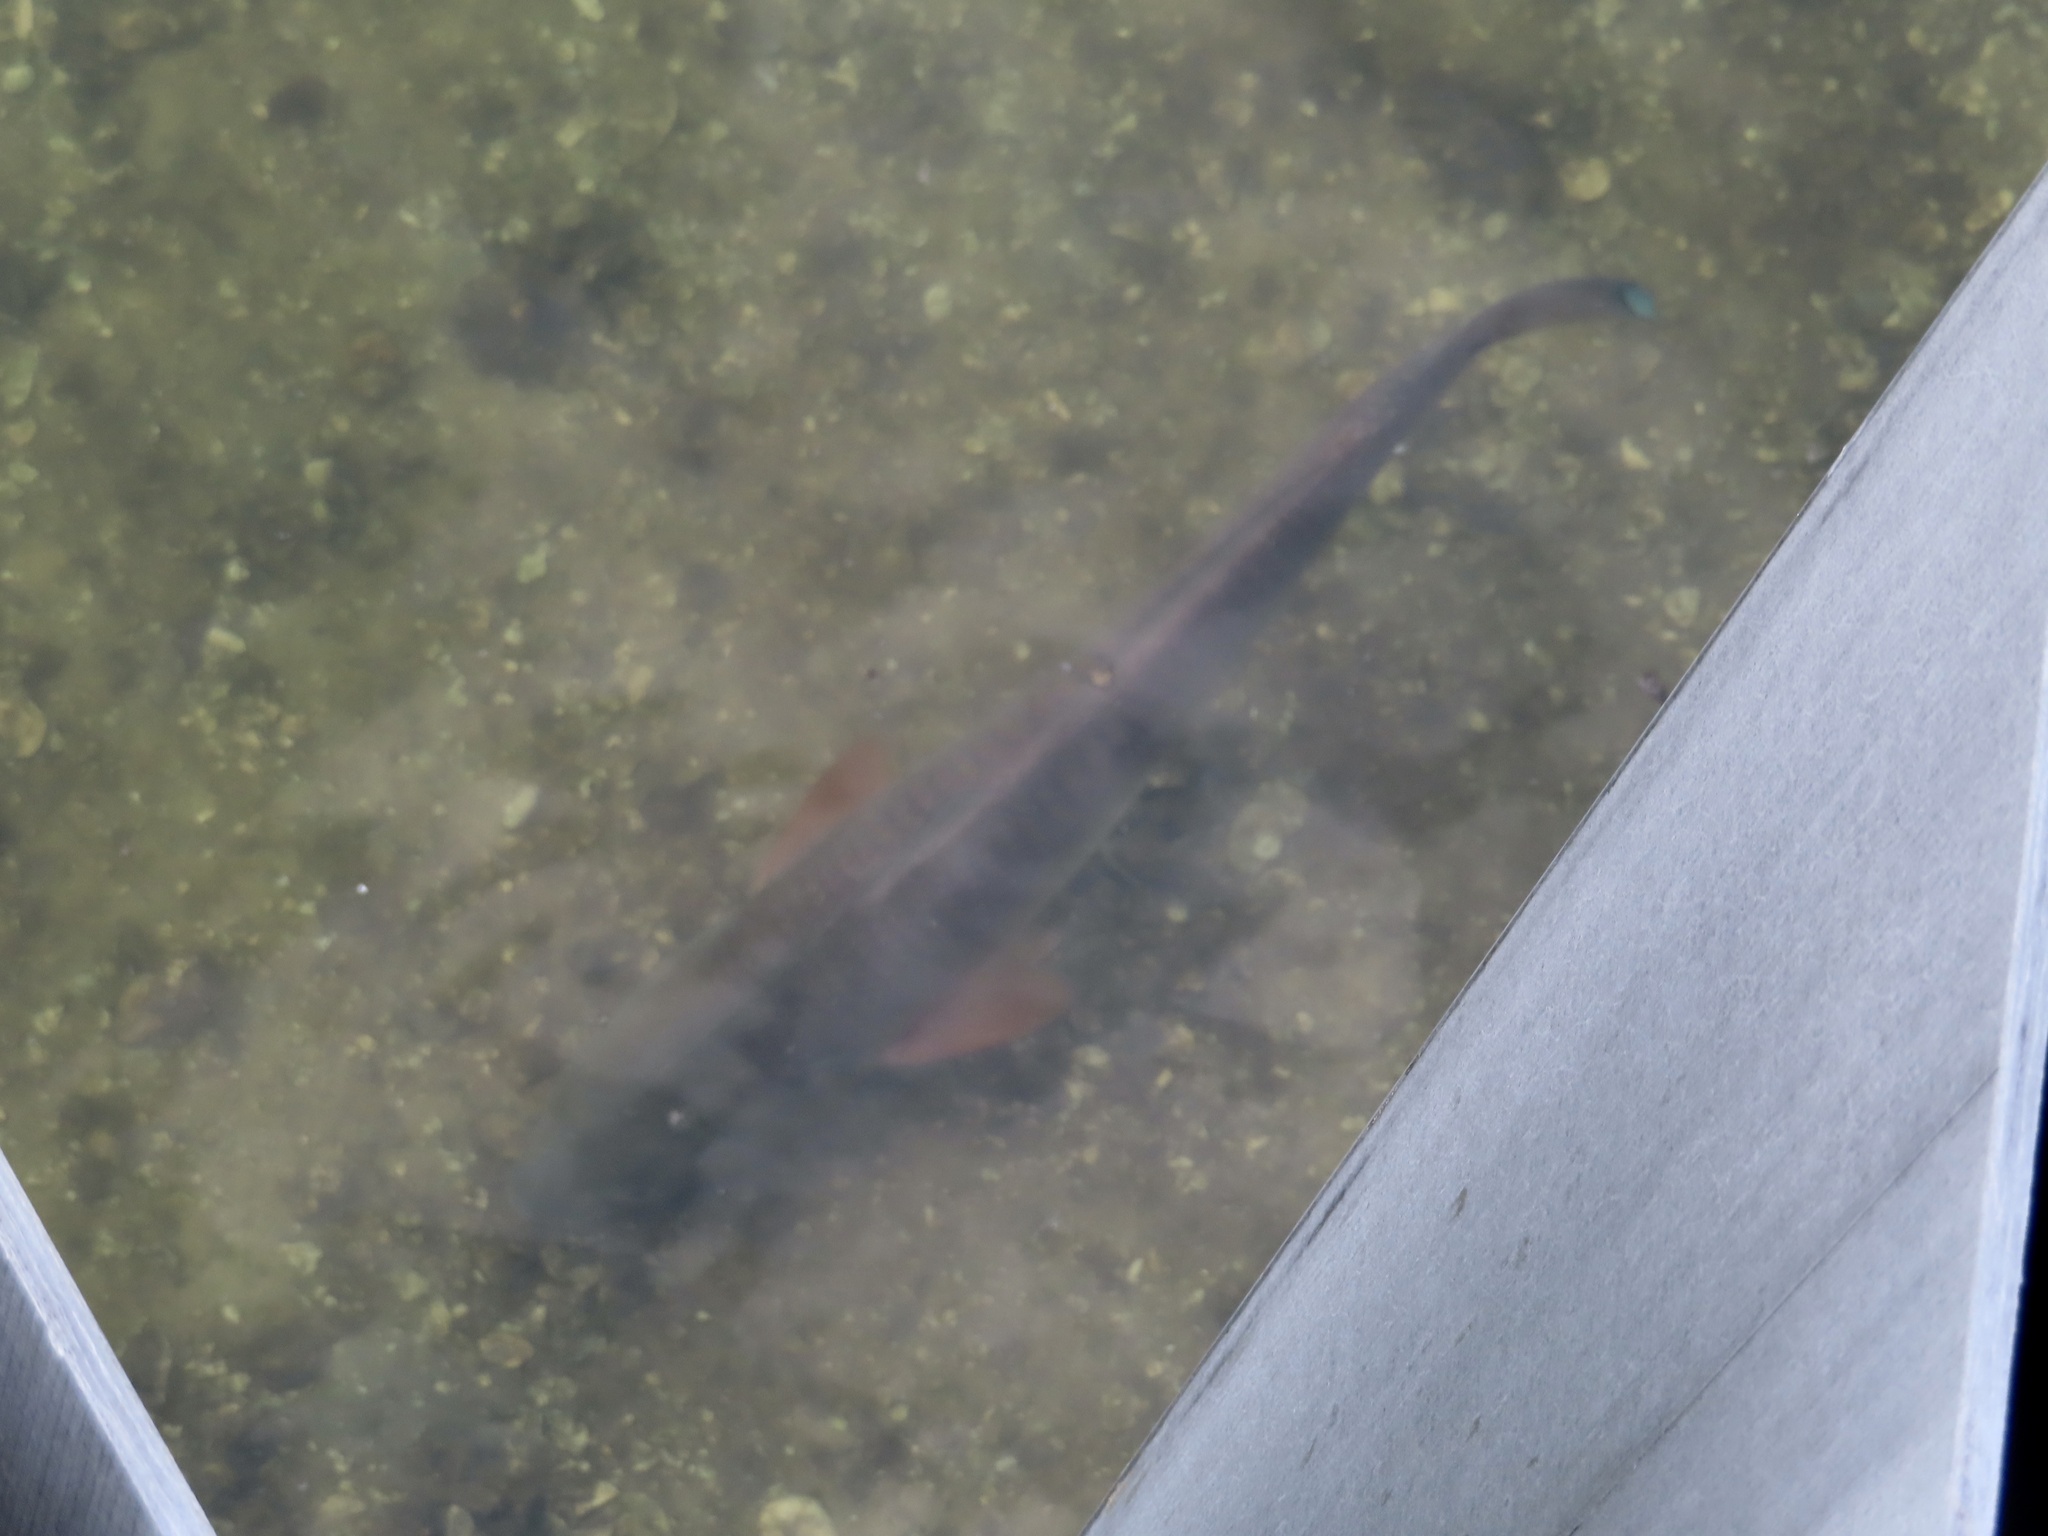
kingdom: Animalia
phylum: Chordata
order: Perciformes
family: Sciaenidae
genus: Sciaenops
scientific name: Sciaenops ocellatus
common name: Red drum
